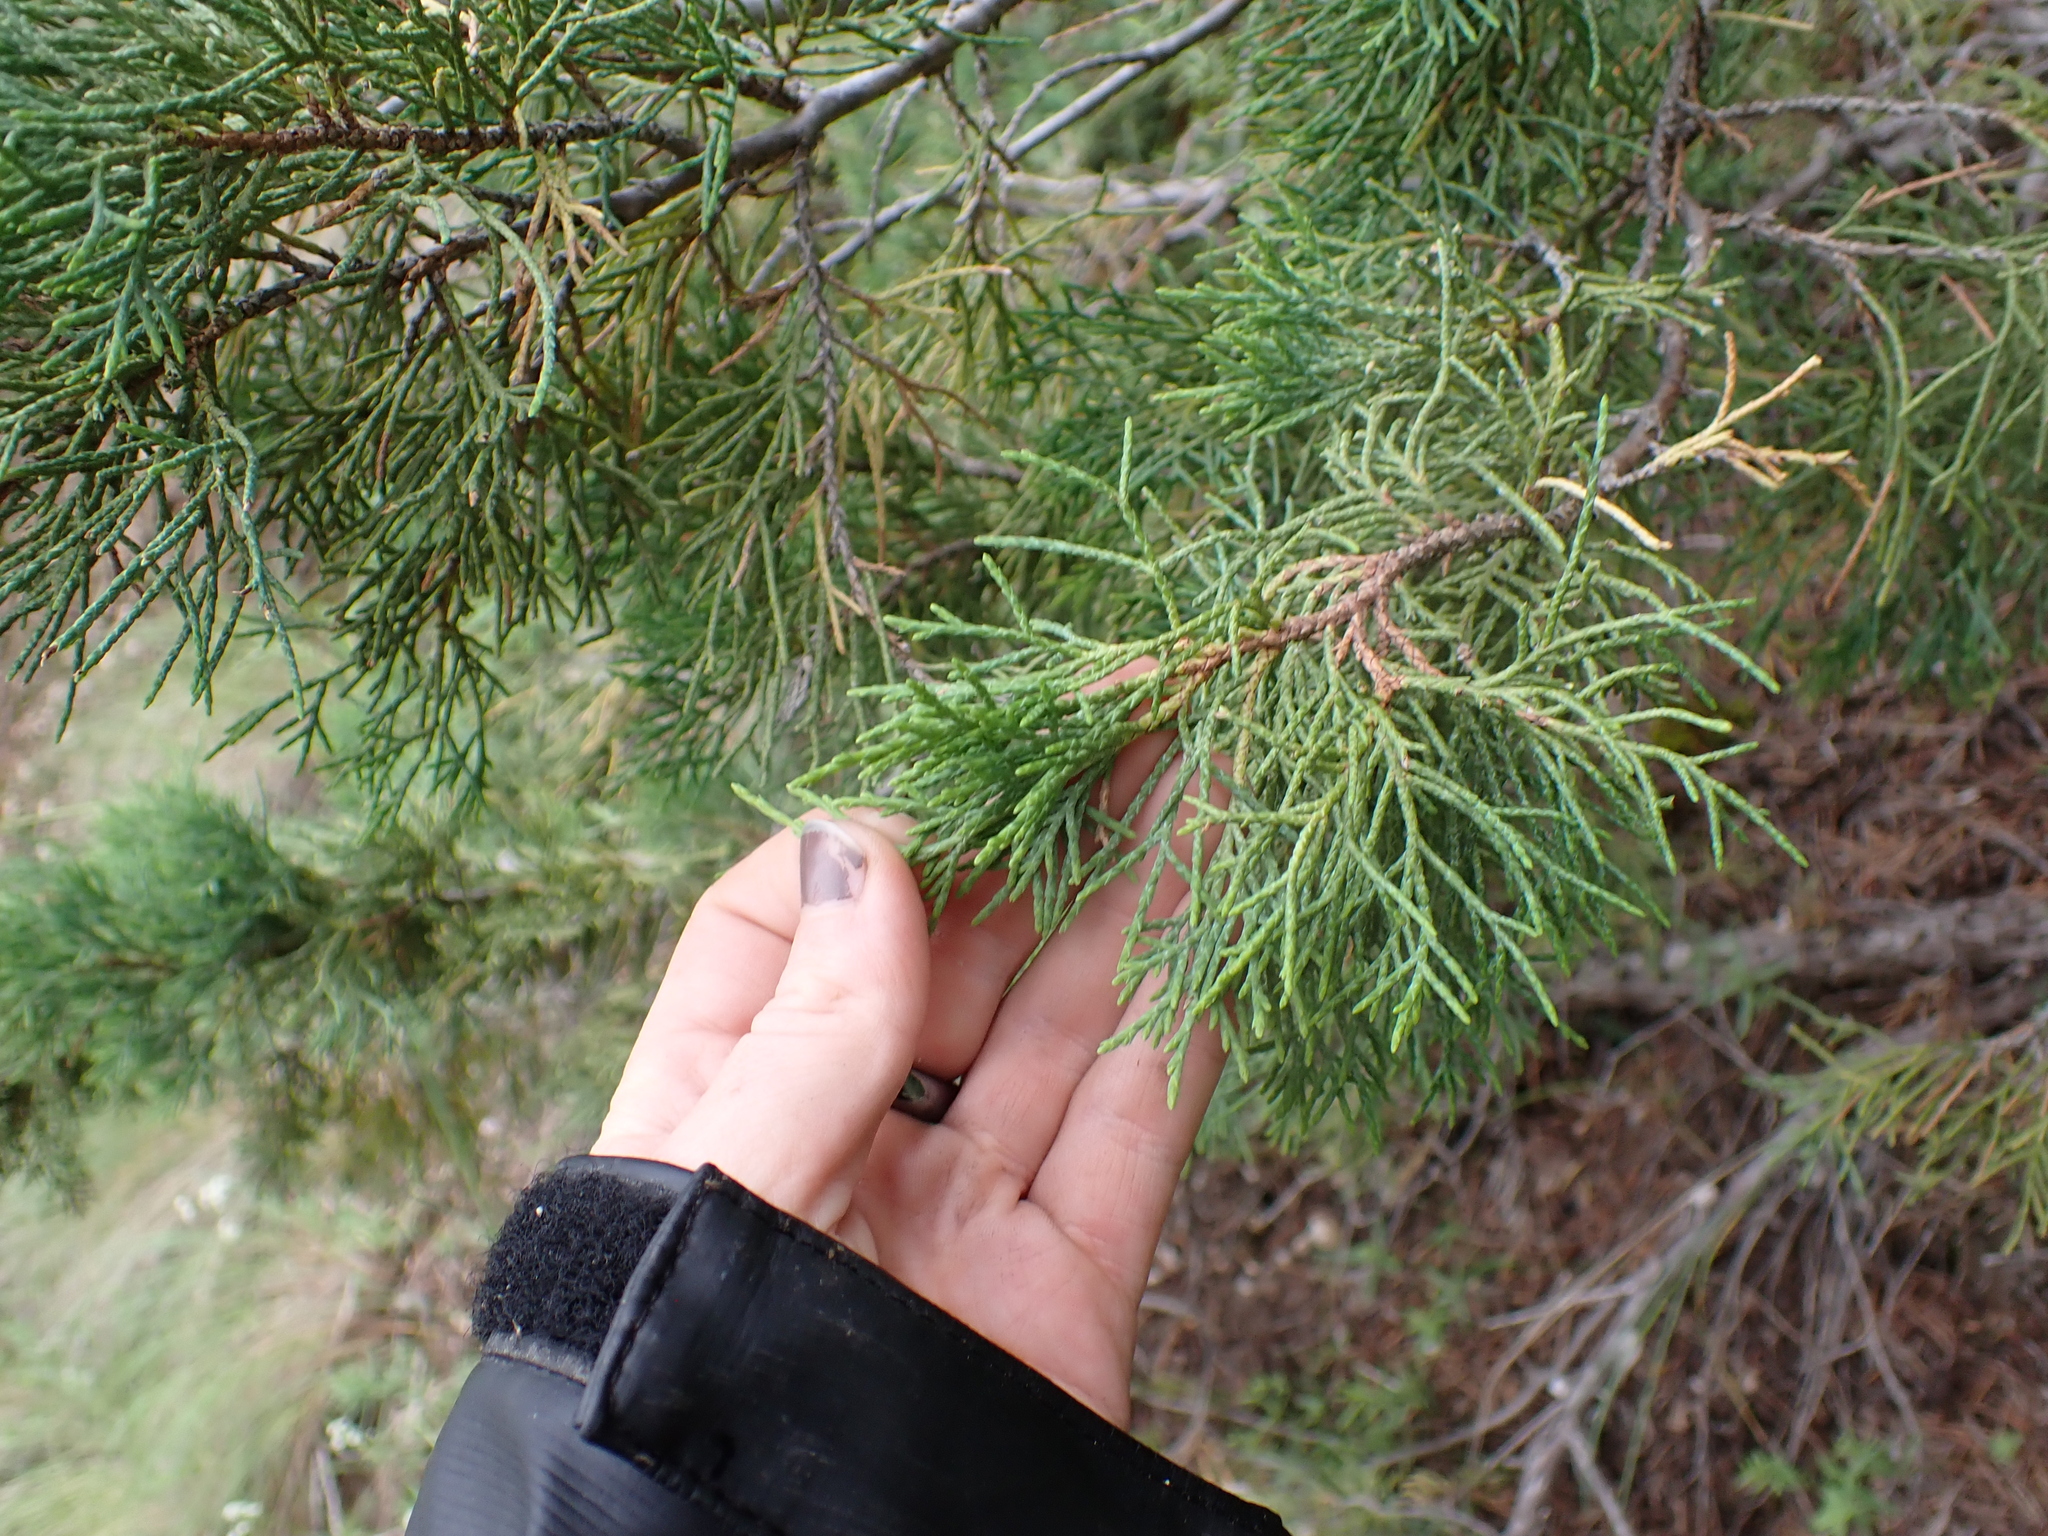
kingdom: Plantae
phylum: Tracheophyta
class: Pinopsida
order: Pinales
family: Cupressaceae
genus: Juniperus
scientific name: Juniperus scopulorum
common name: Rocky mountain juniper
